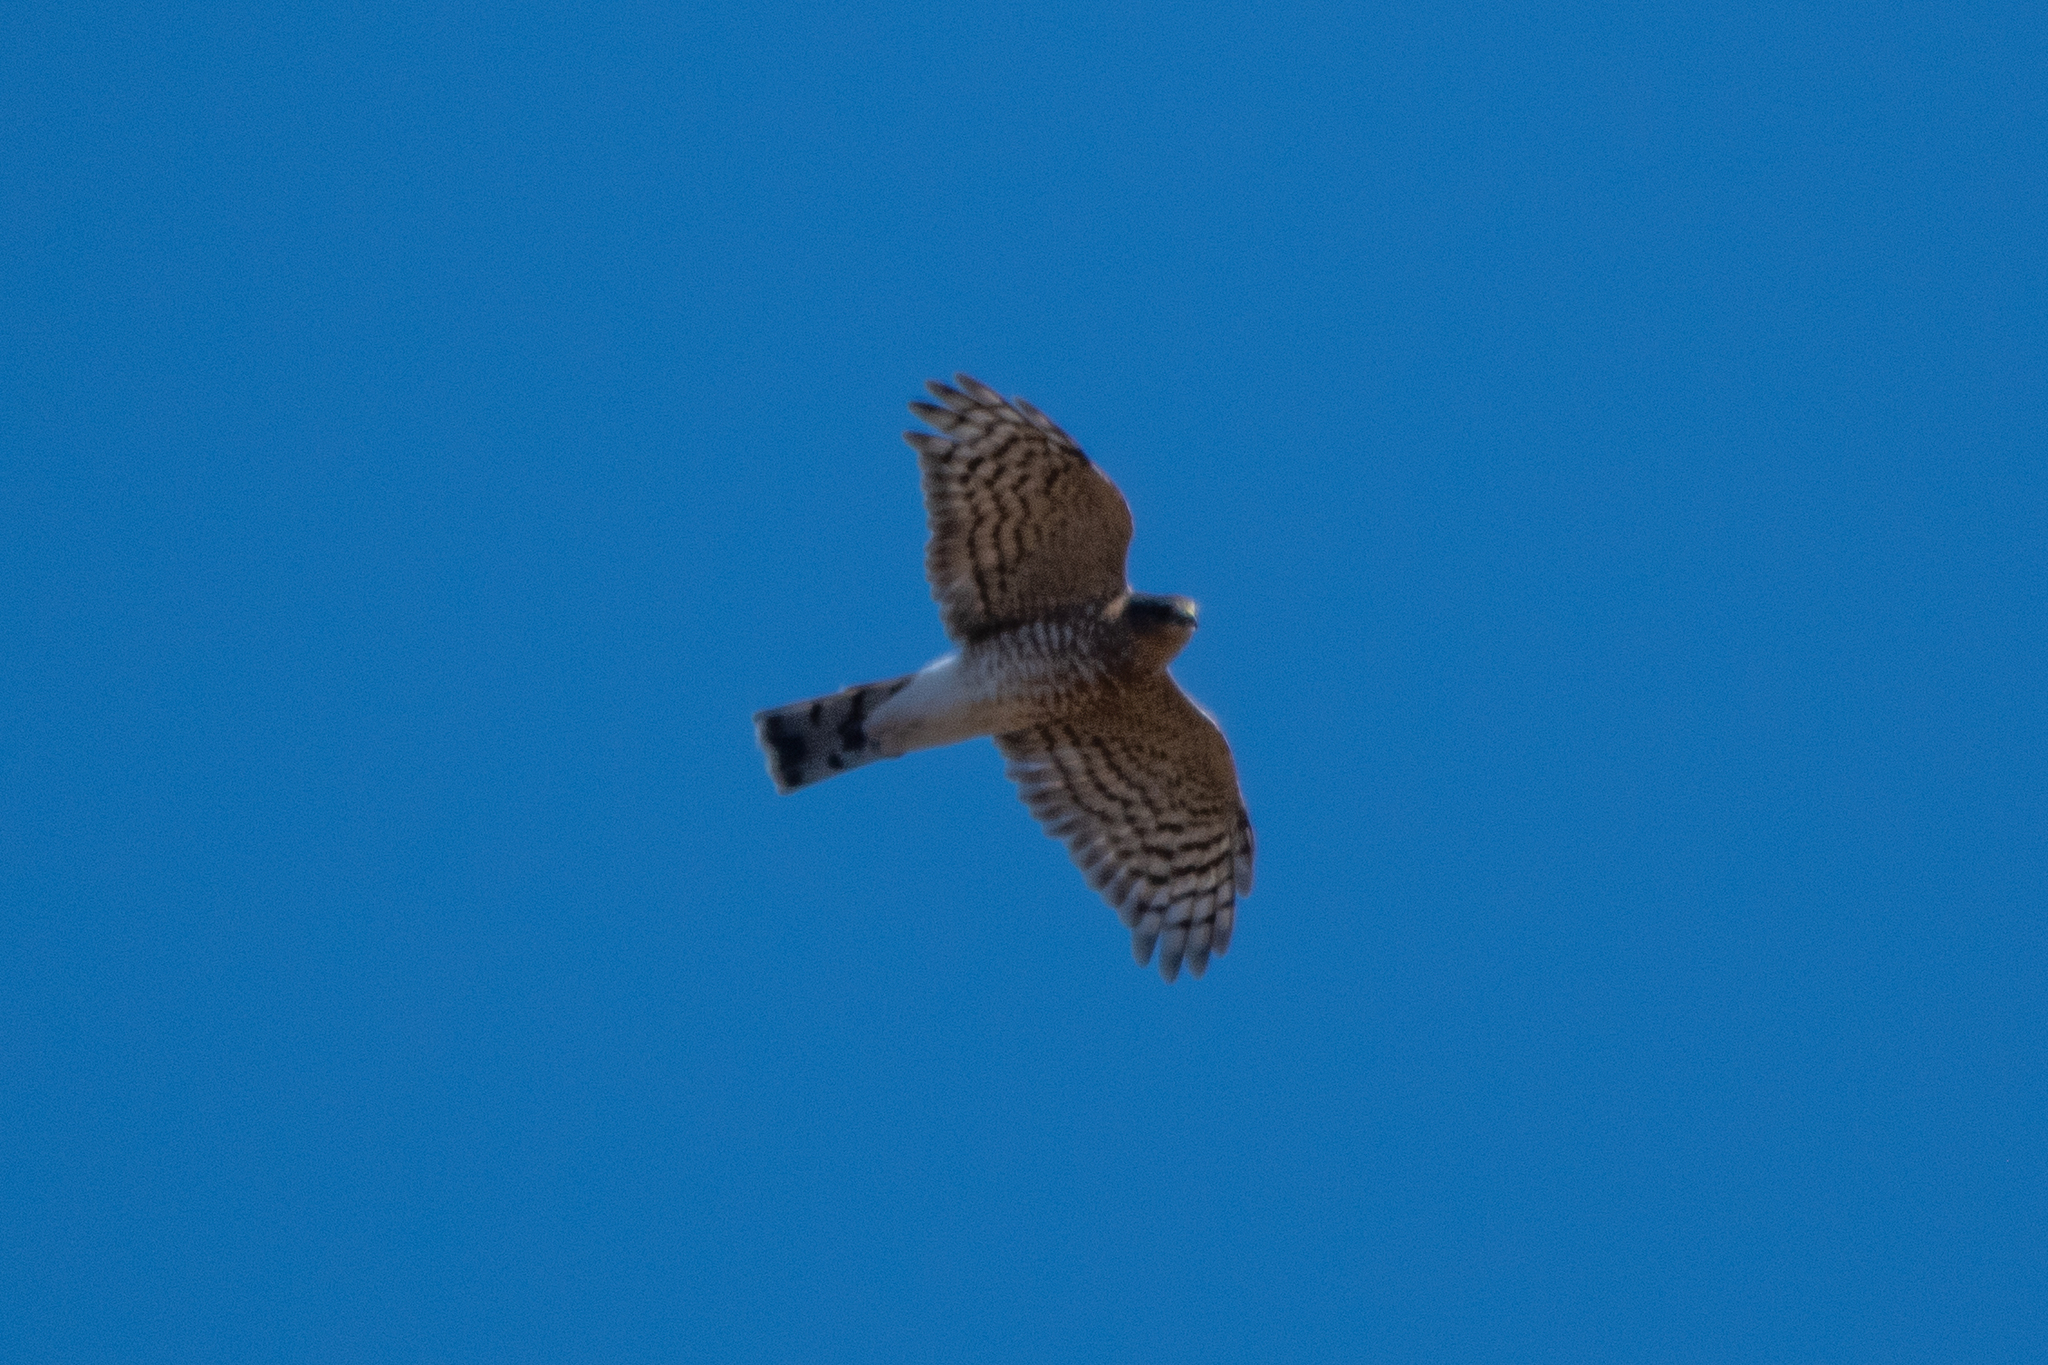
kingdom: Animalia
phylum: Chordata
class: Aves
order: Accipitriformes
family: Accipitridae
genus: Accipiter
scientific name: Accipiter striatus
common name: Sharp-shinned hawk
